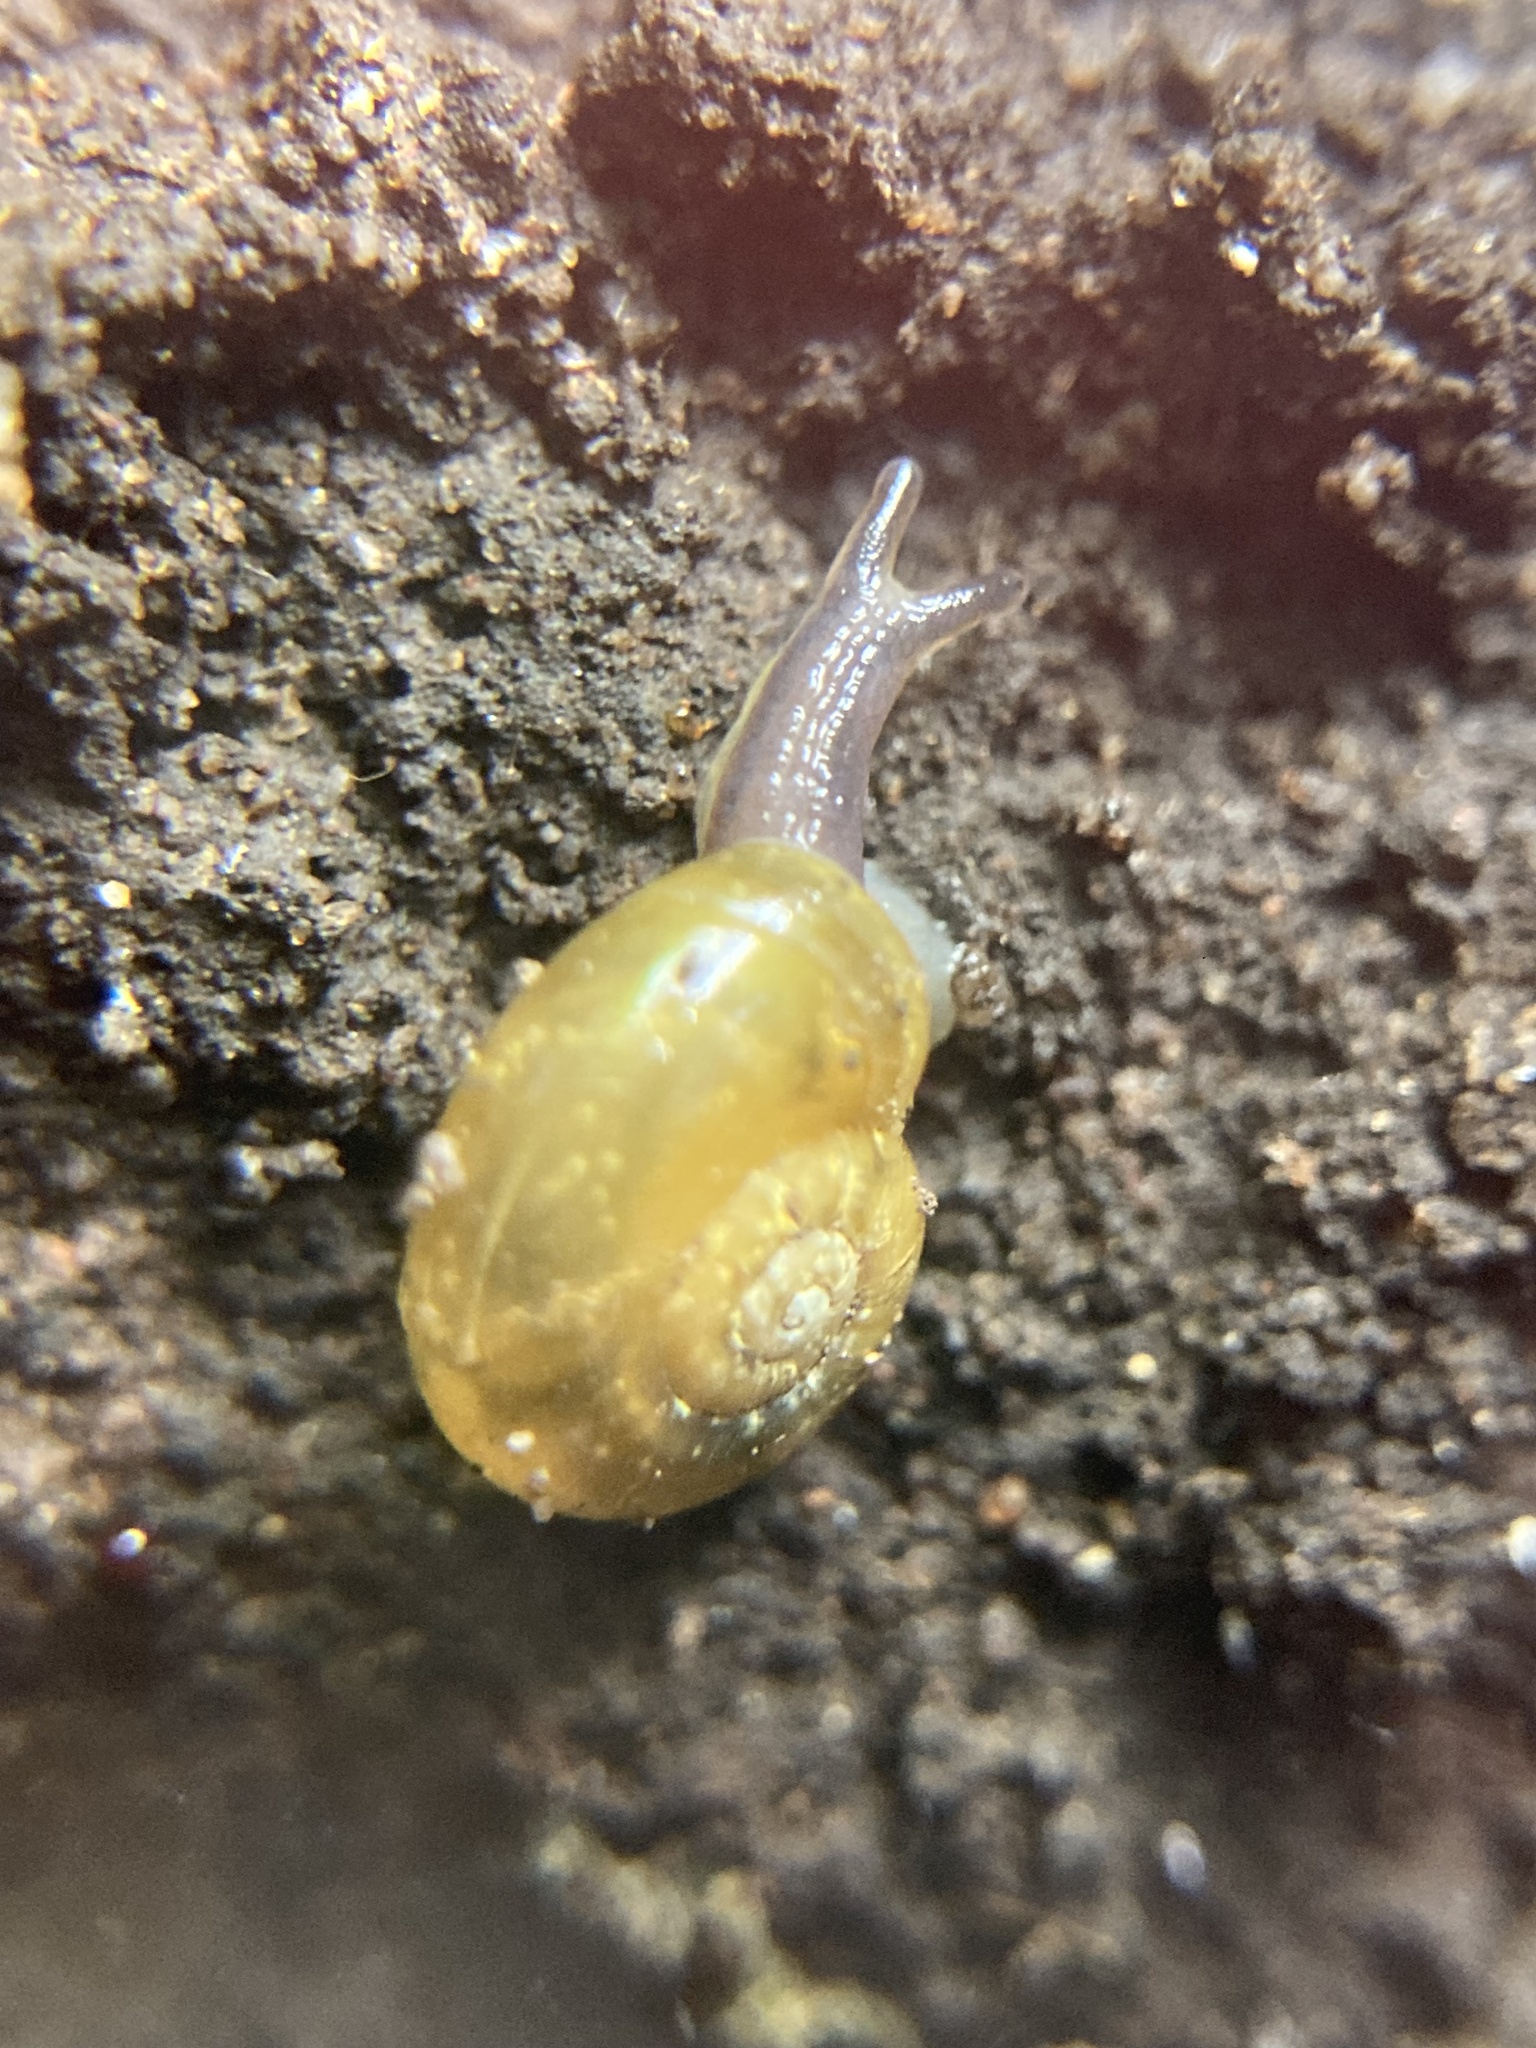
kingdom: Animalia
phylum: Mollusca
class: Gastropoda
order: Stylommatophora
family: Rhytididae
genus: Vitellidelos
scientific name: Vitellidelos dulcis
